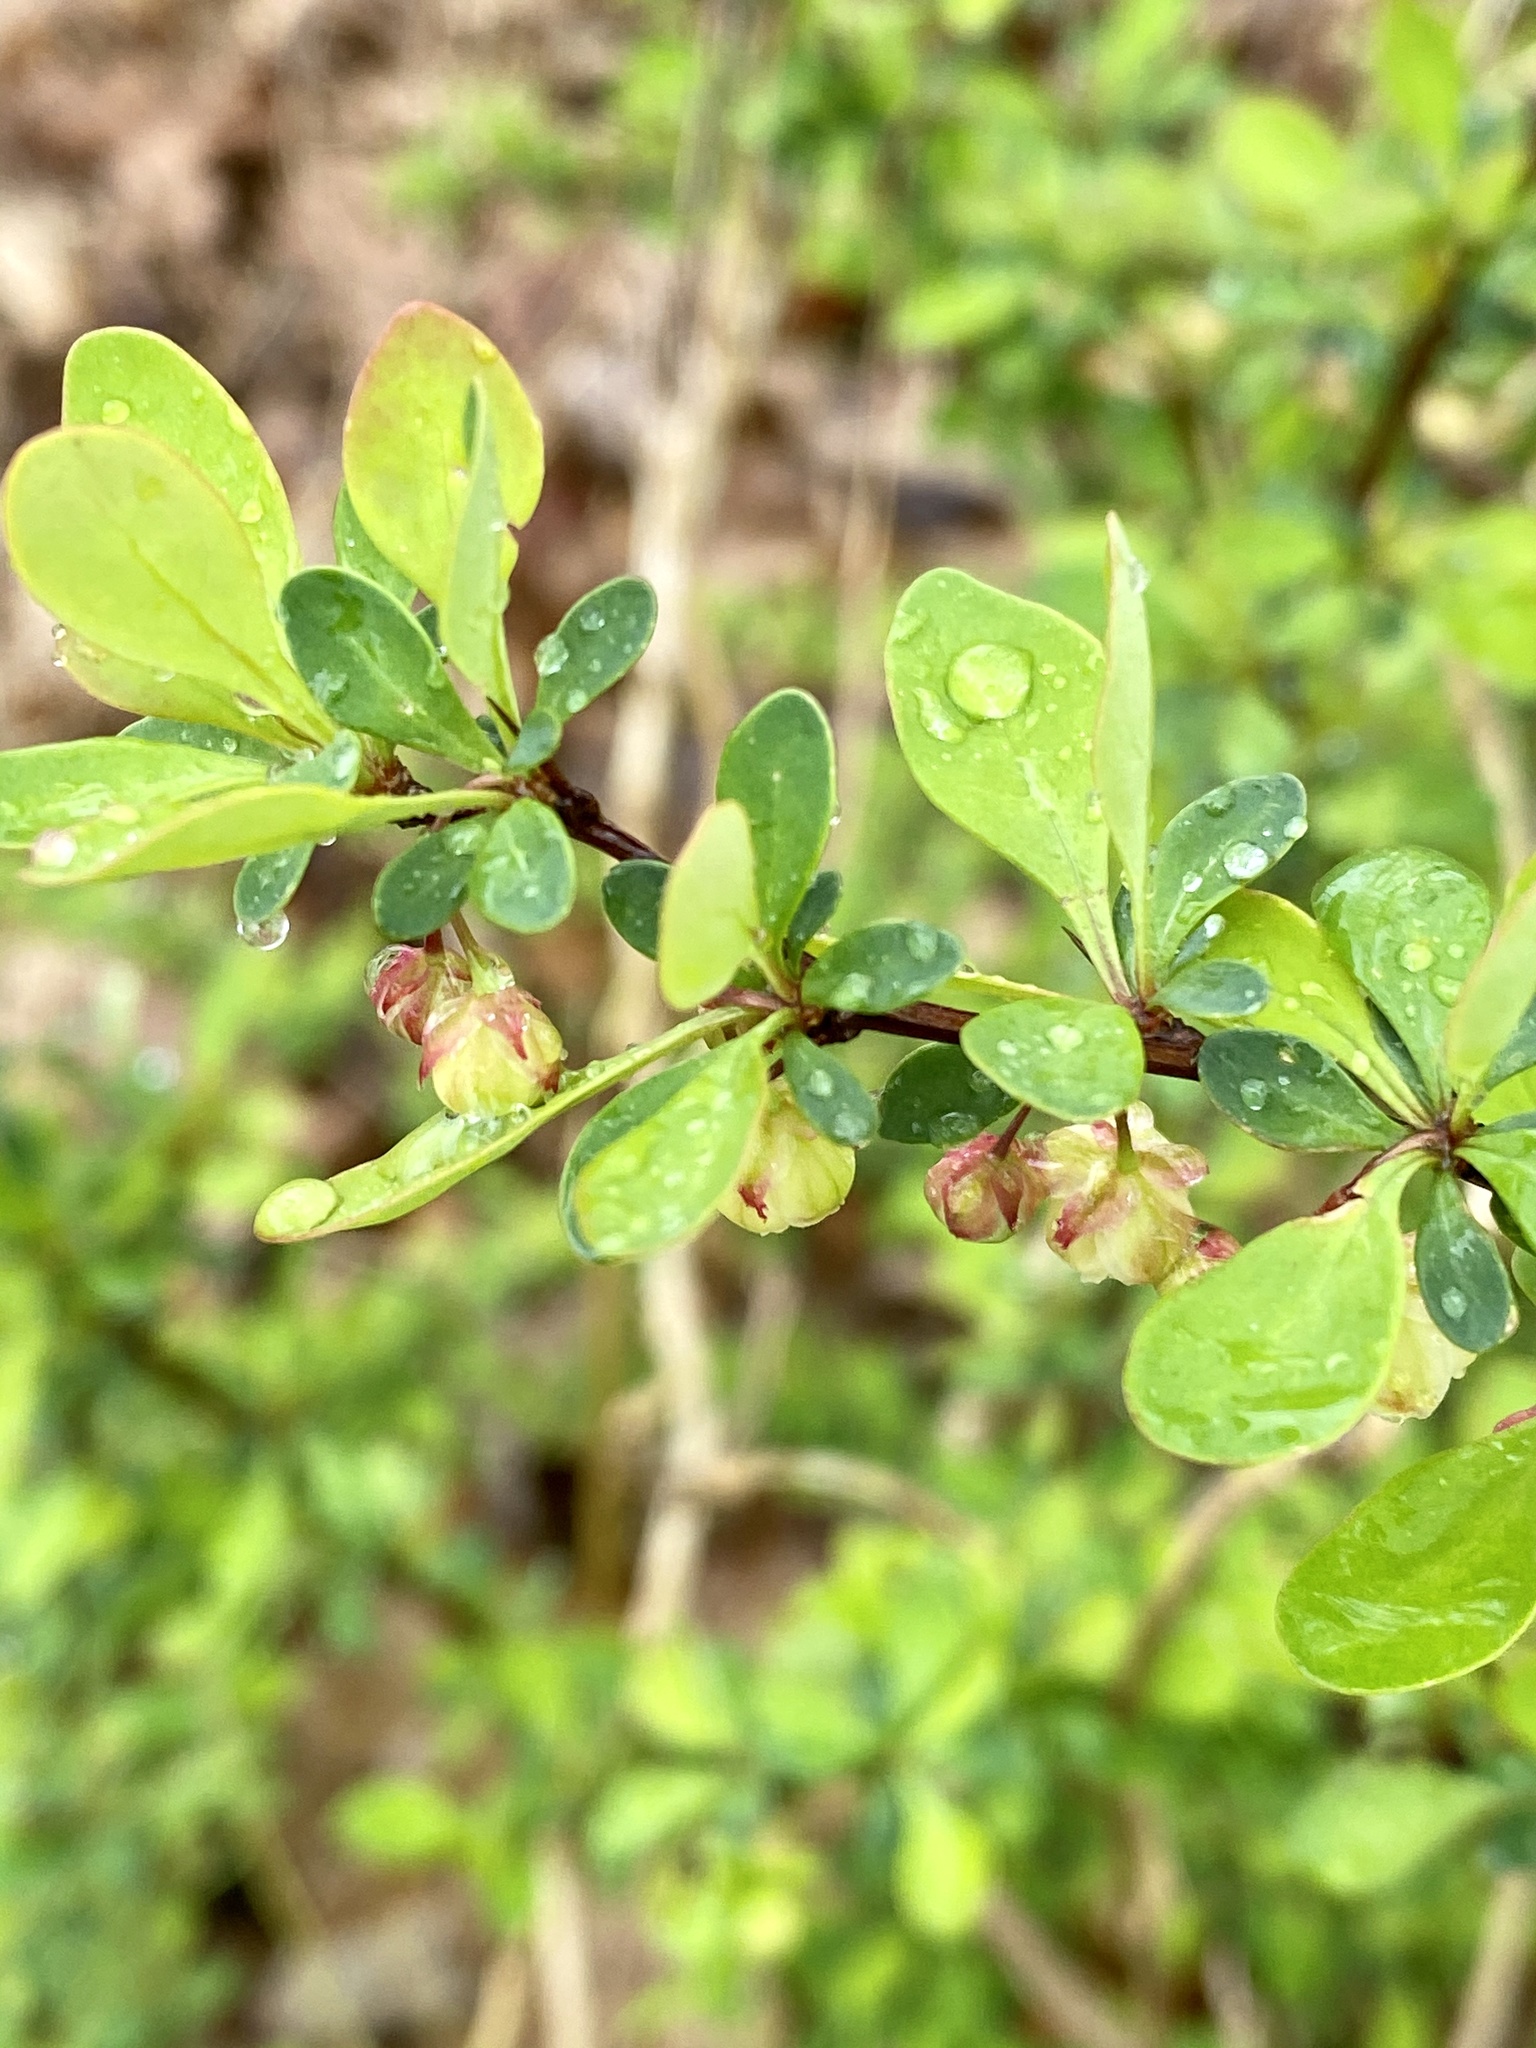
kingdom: Plantae
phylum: Tracheophyta
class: Magnoliopsida
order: Ranunculales
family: Berberidaceae
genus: Berberis
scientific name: Berberis thunbergii
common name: Japanese barberry
